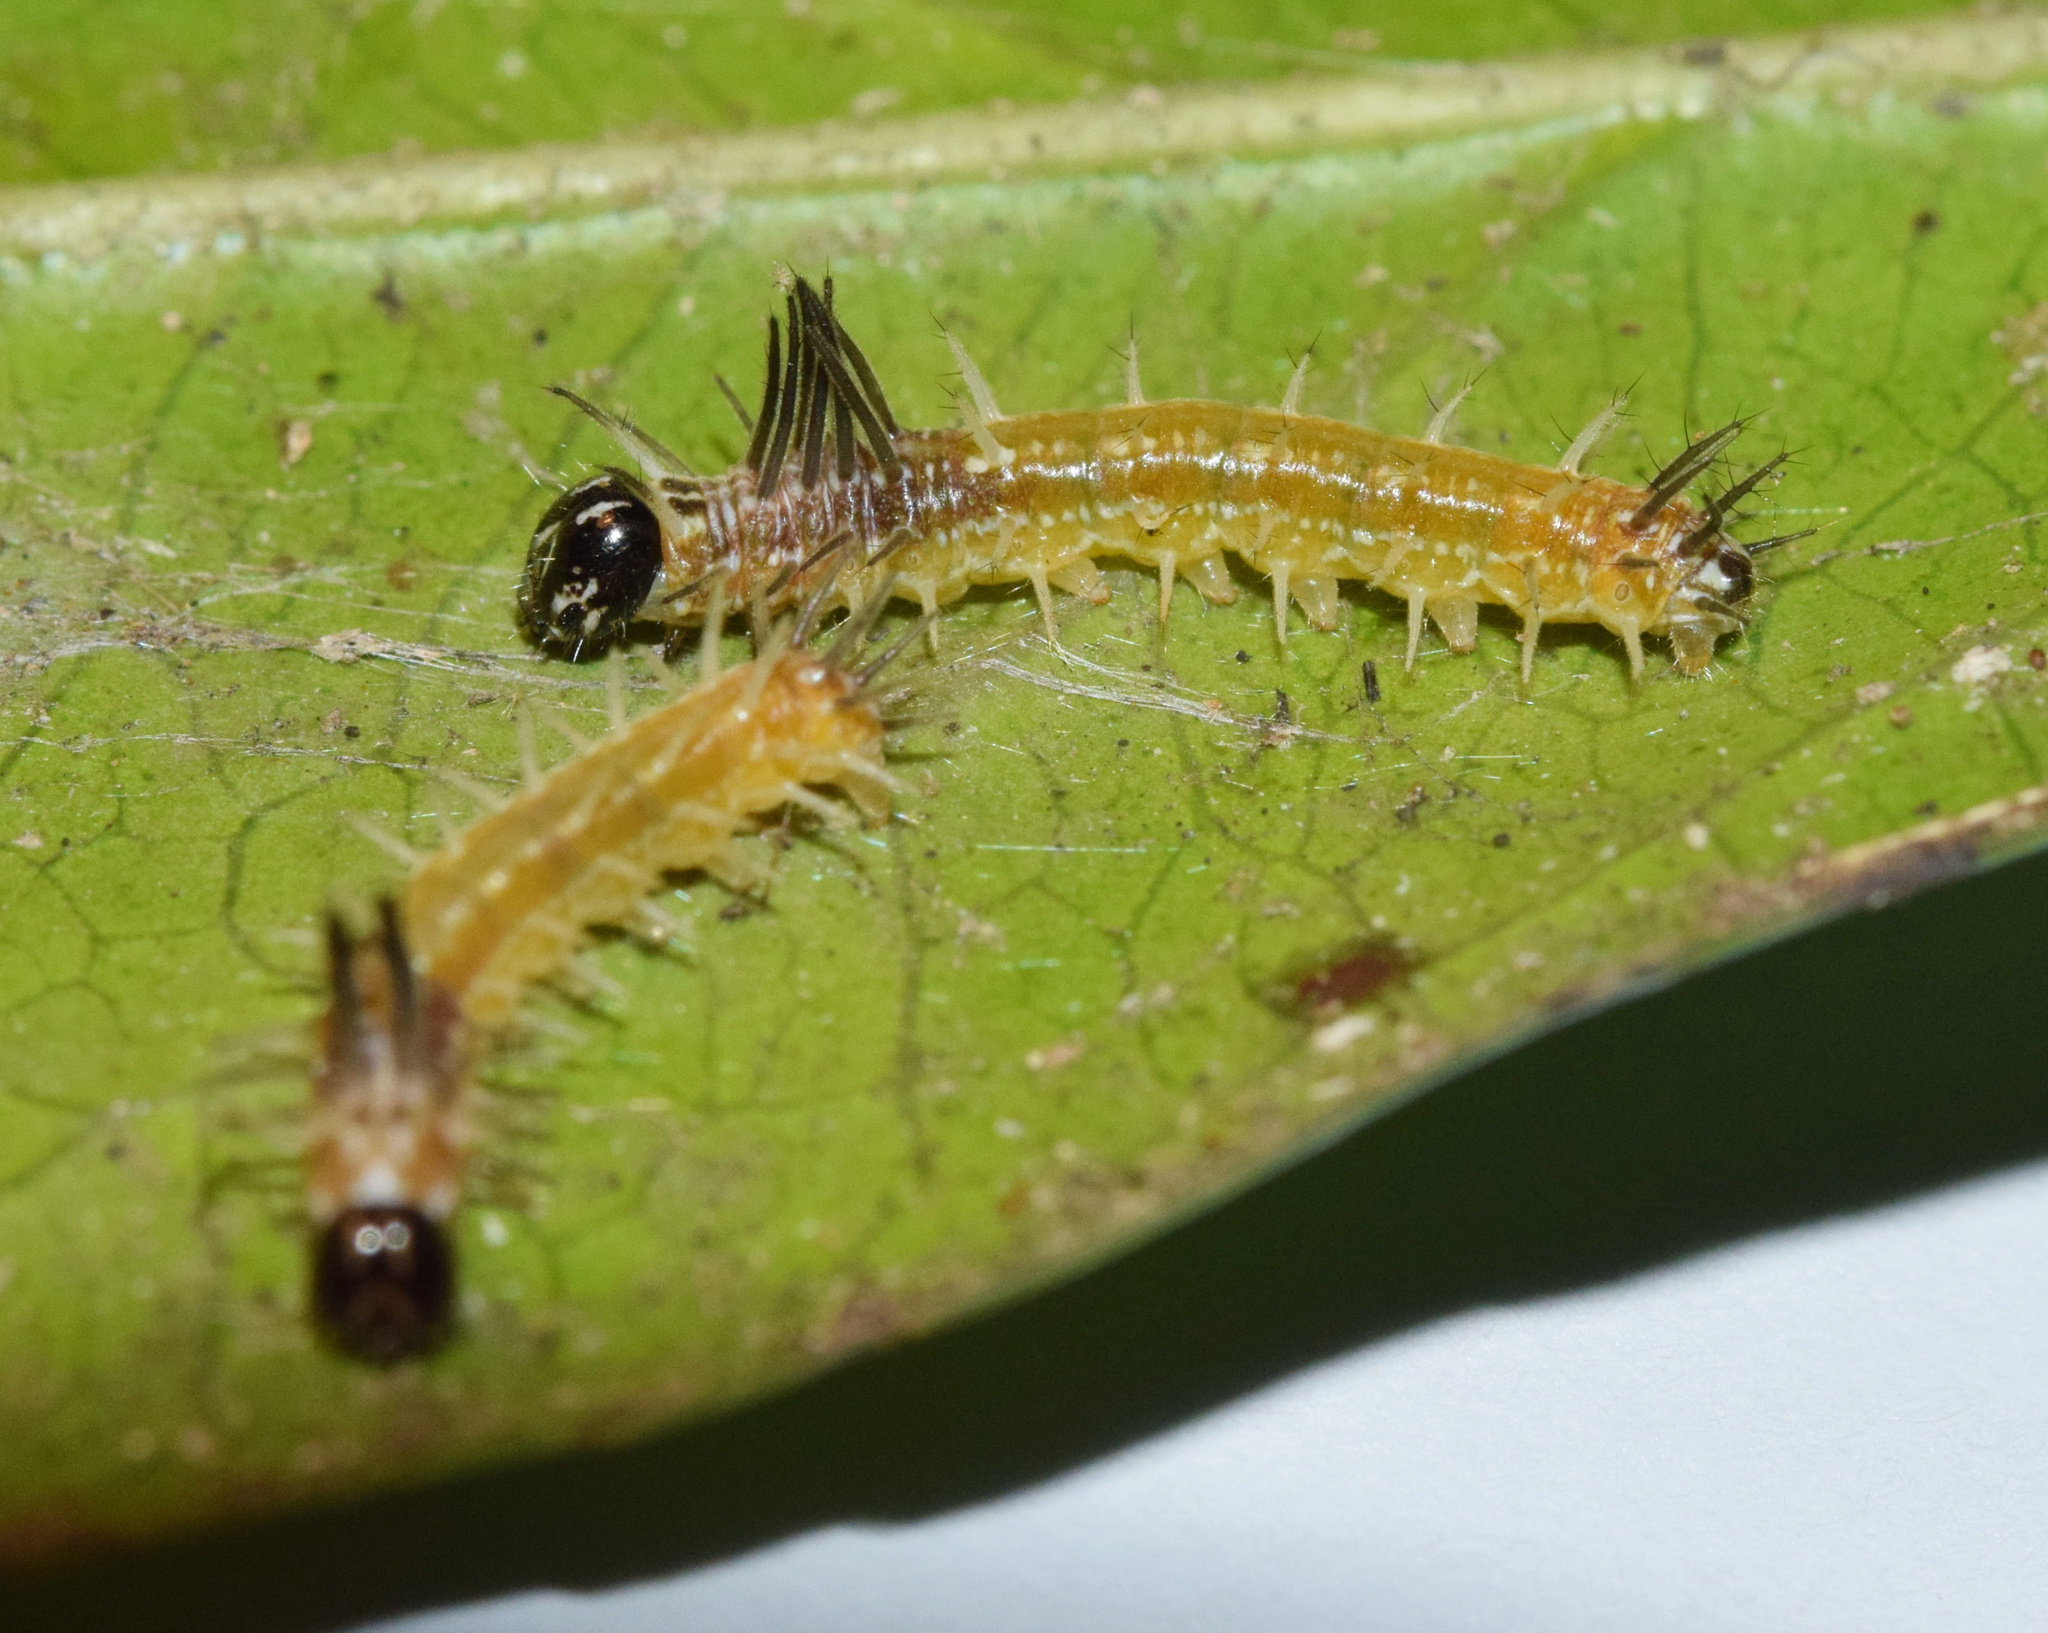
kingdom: Animalia
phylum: Arthropoda
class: Insecta
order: Lepidoptera
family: Nymphalidae
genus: Rubraea
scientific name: Rubraea
